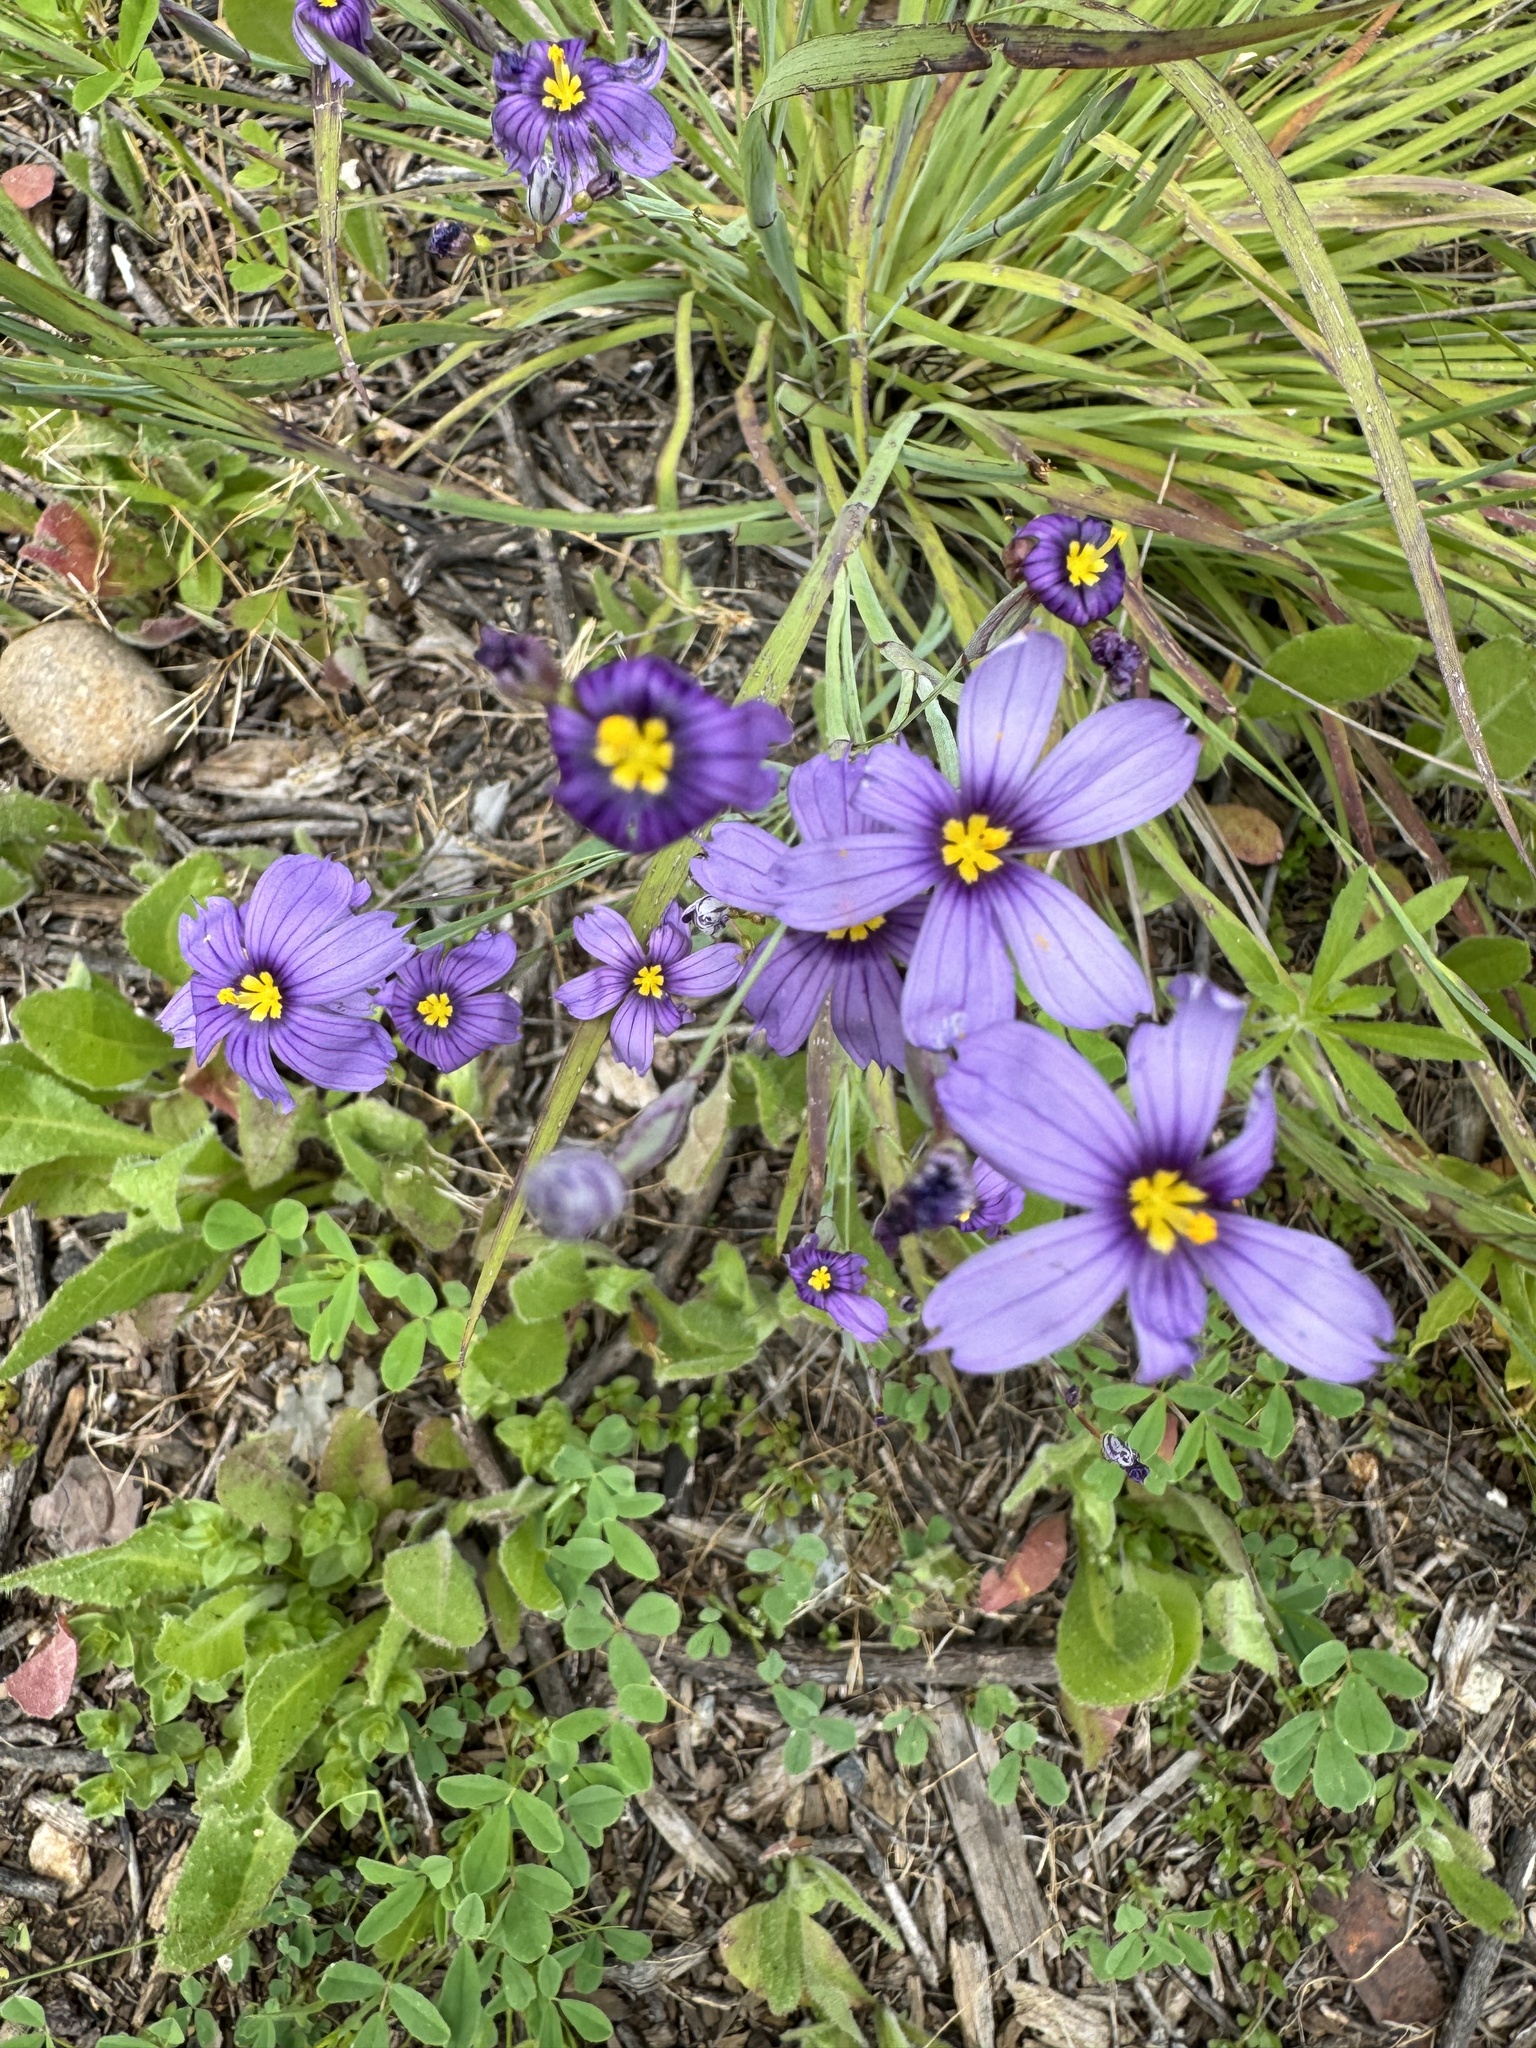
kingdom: Plantae
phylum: Tracheophyta
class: Liliopsida
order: Asparagales
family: Iridaceae
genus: Sisyrinchium
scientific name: Sisyrinchium bellum
